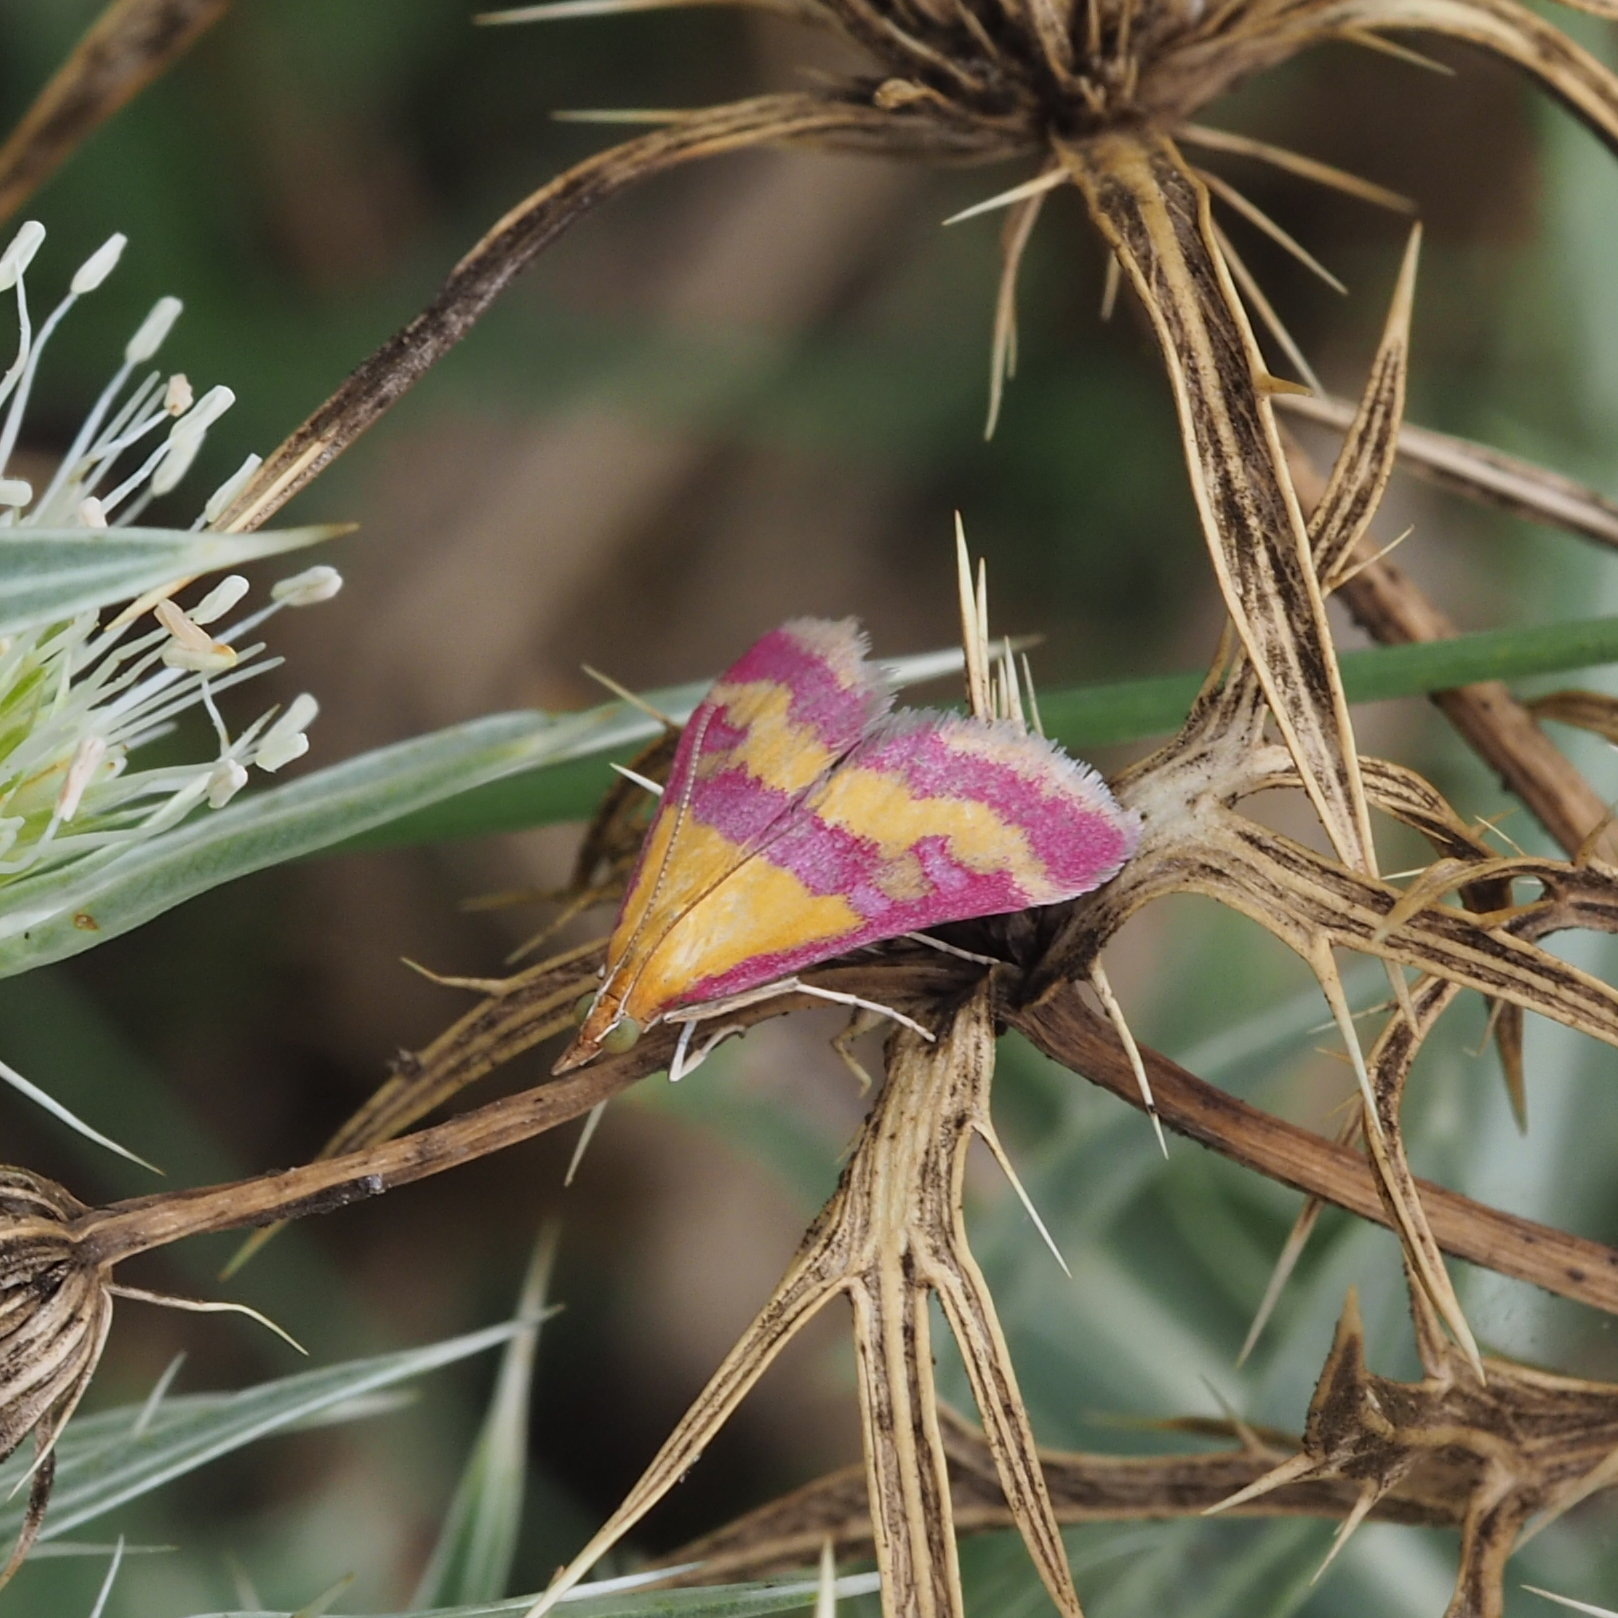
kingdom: Animalia
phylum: Arthropoda
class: Insecta
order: Lepidoptera
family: Crambidae
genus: Pyrausta
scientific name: Pyrausta sanguinalis
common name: Scarce crimson and gold
